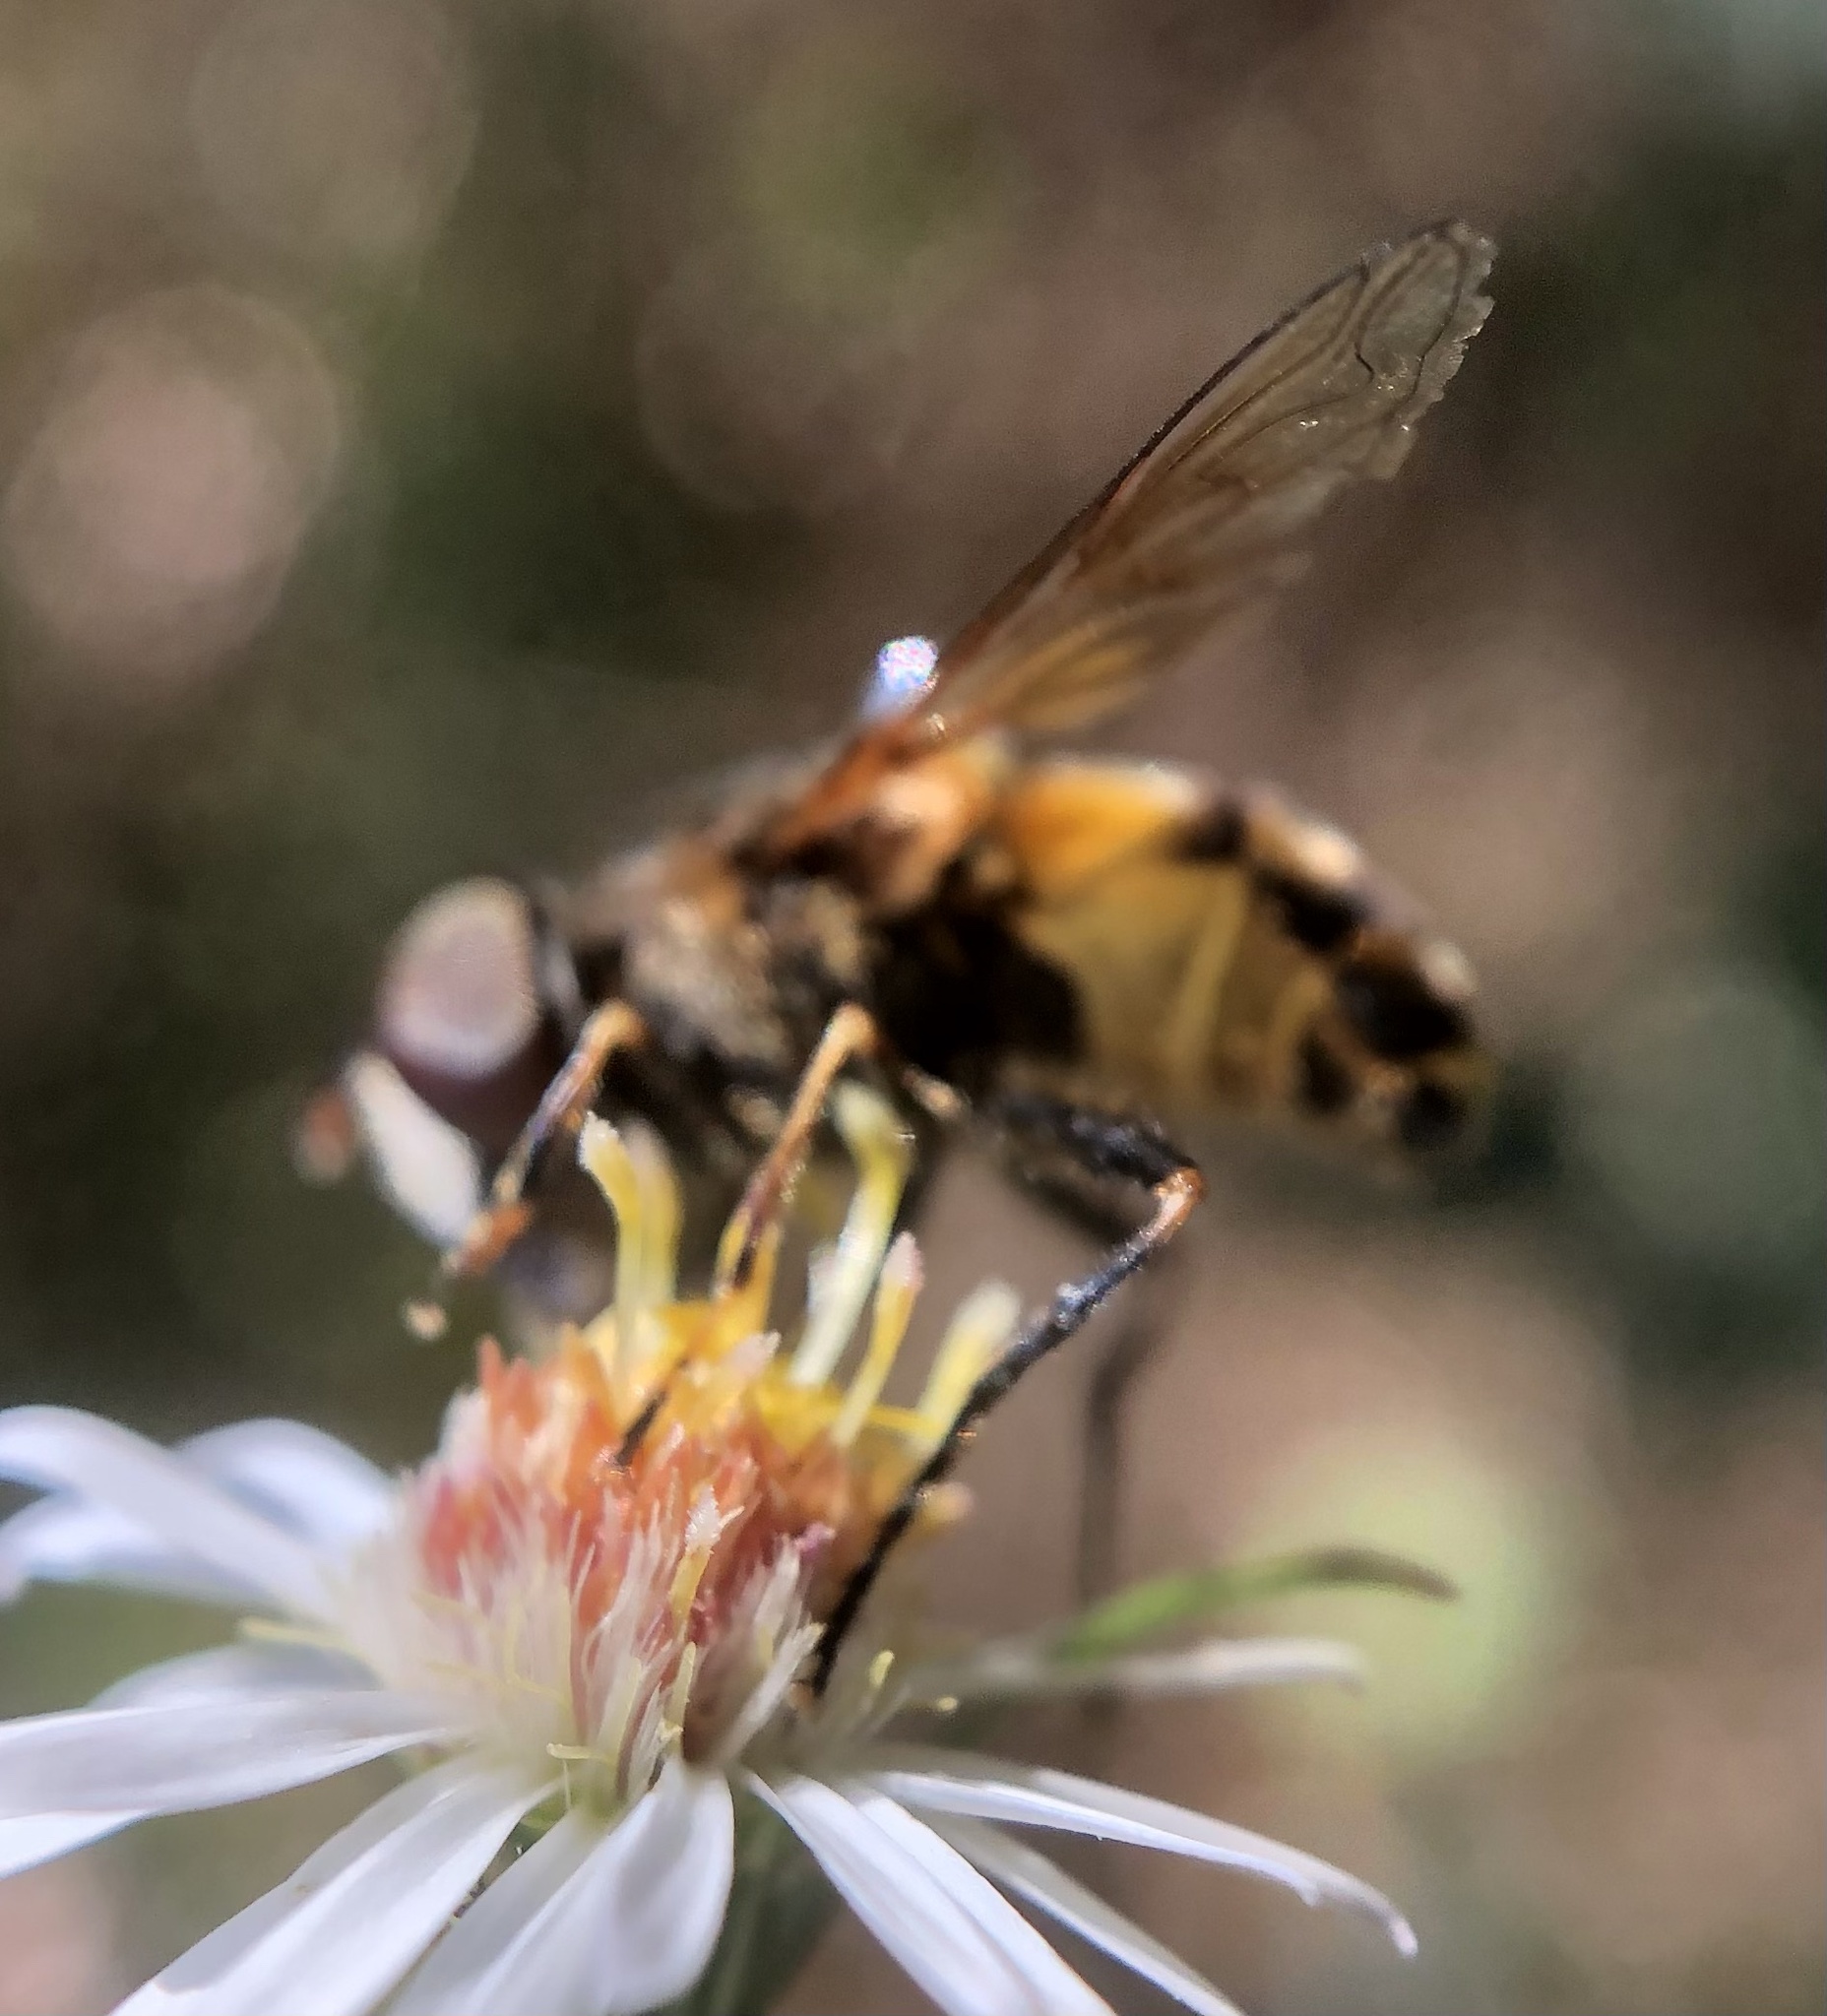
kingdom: Animalia
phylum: Arthropoda
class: Insecta
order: Diptera
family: Syrphidae
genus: Eristalis
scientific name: Eristalis transversa
